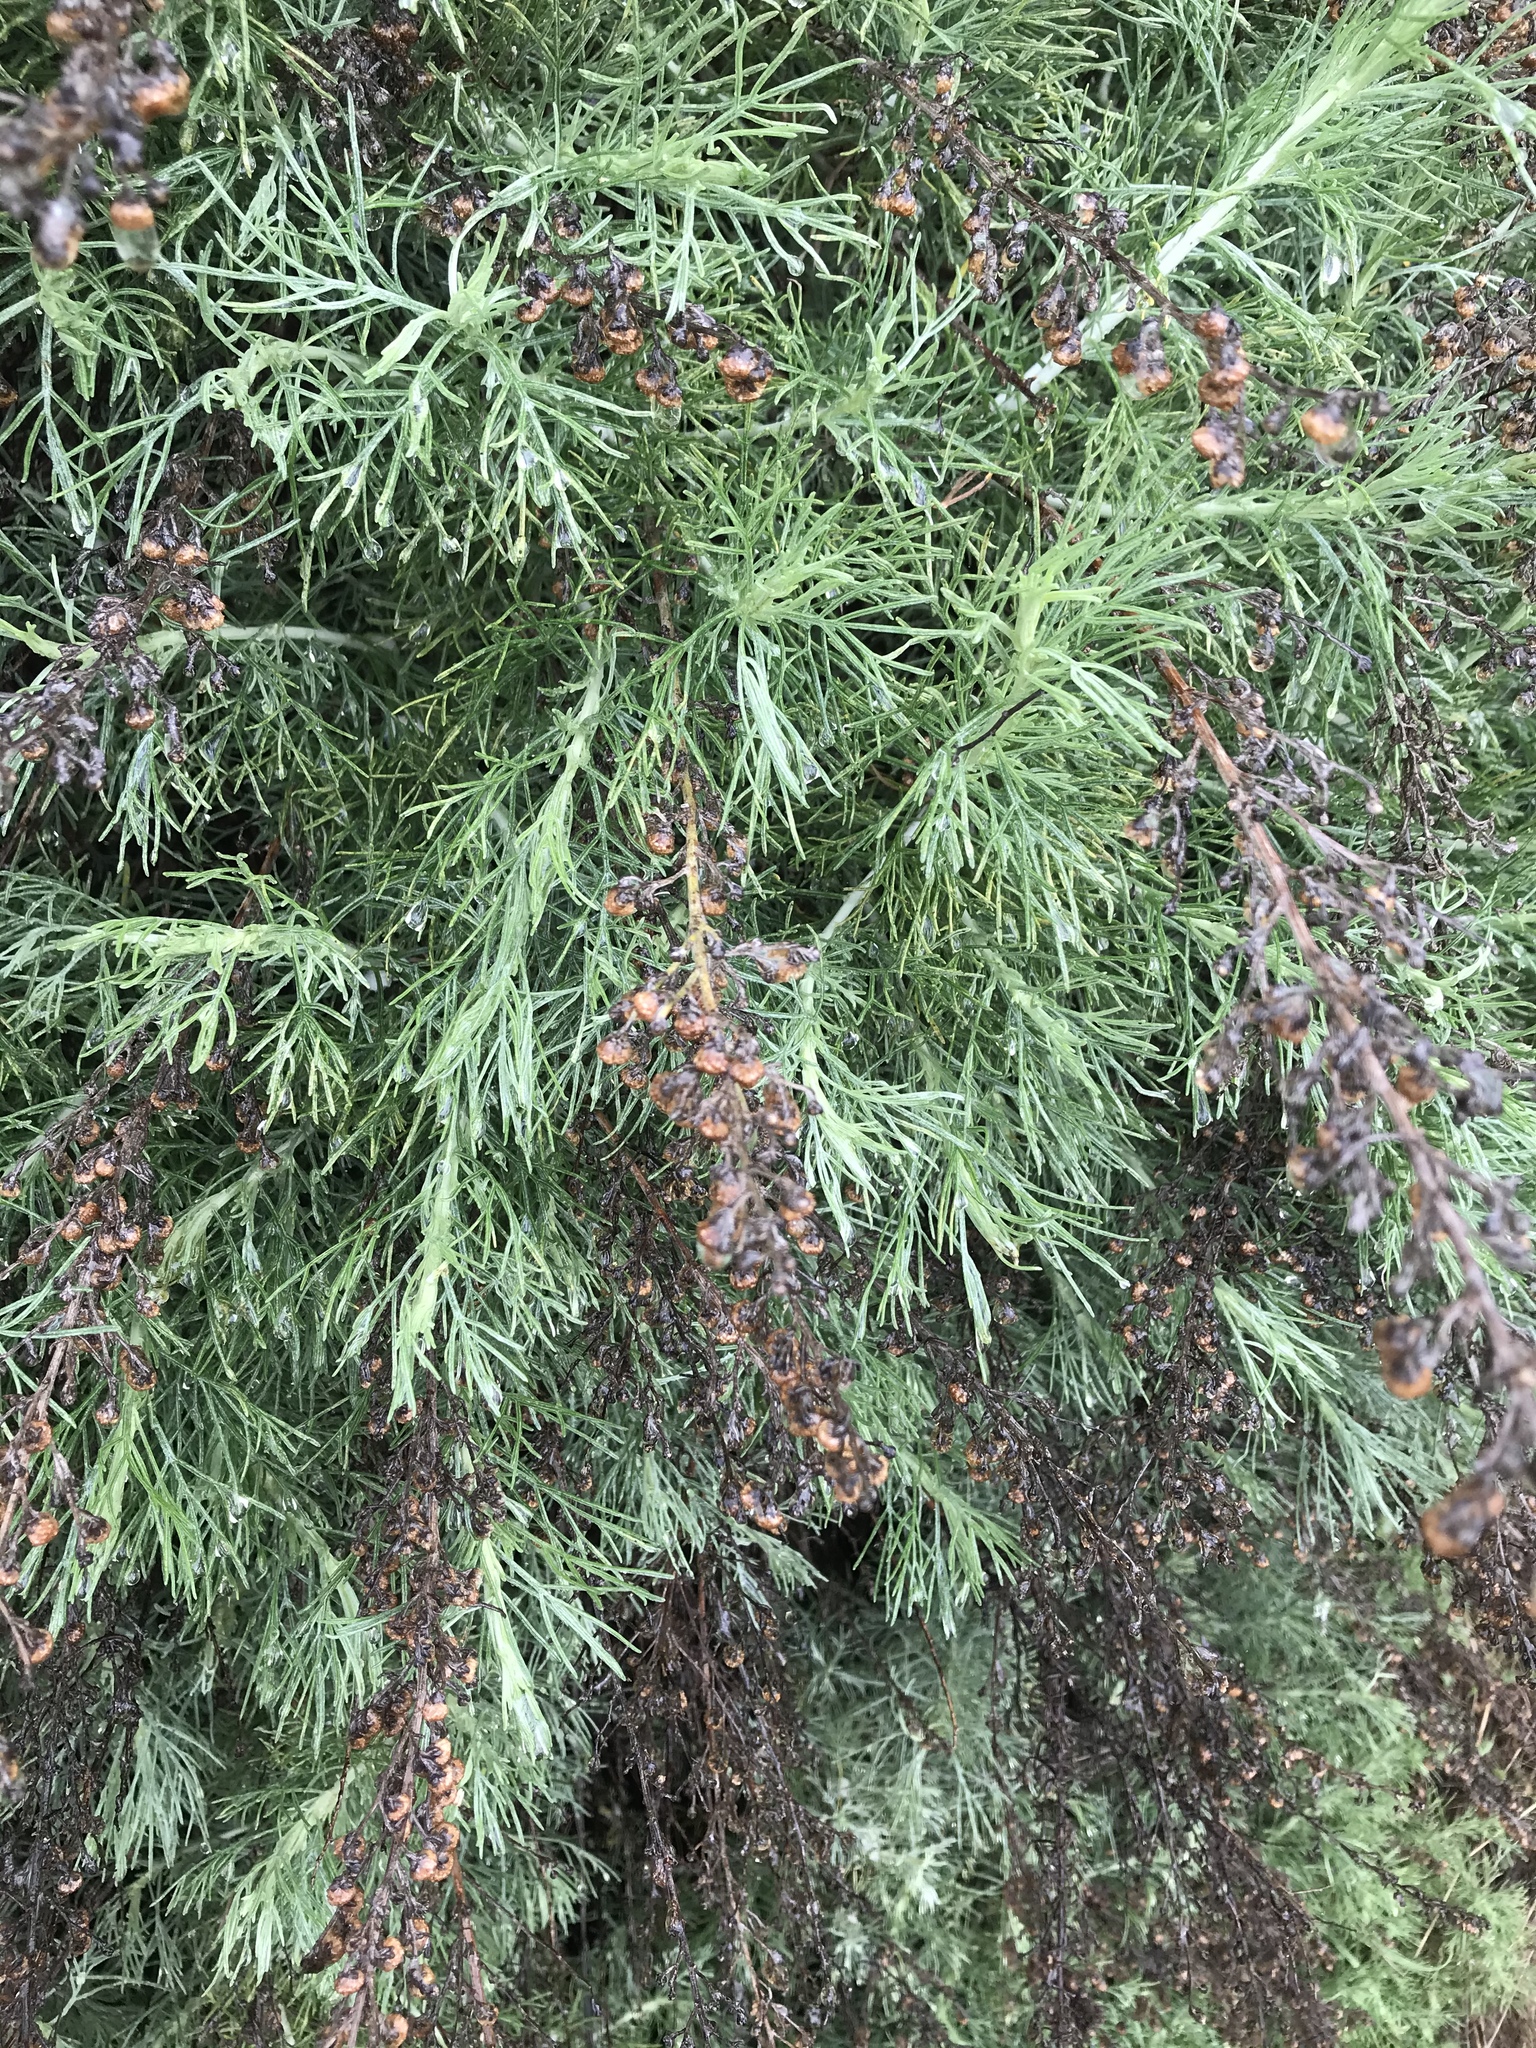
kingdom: Plantae
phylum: Tracheophyta
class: Magnoliopsida
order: Asterales
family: Asteraceae
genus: Artemisia
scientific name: Artemisia californica
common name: California sagebrush
